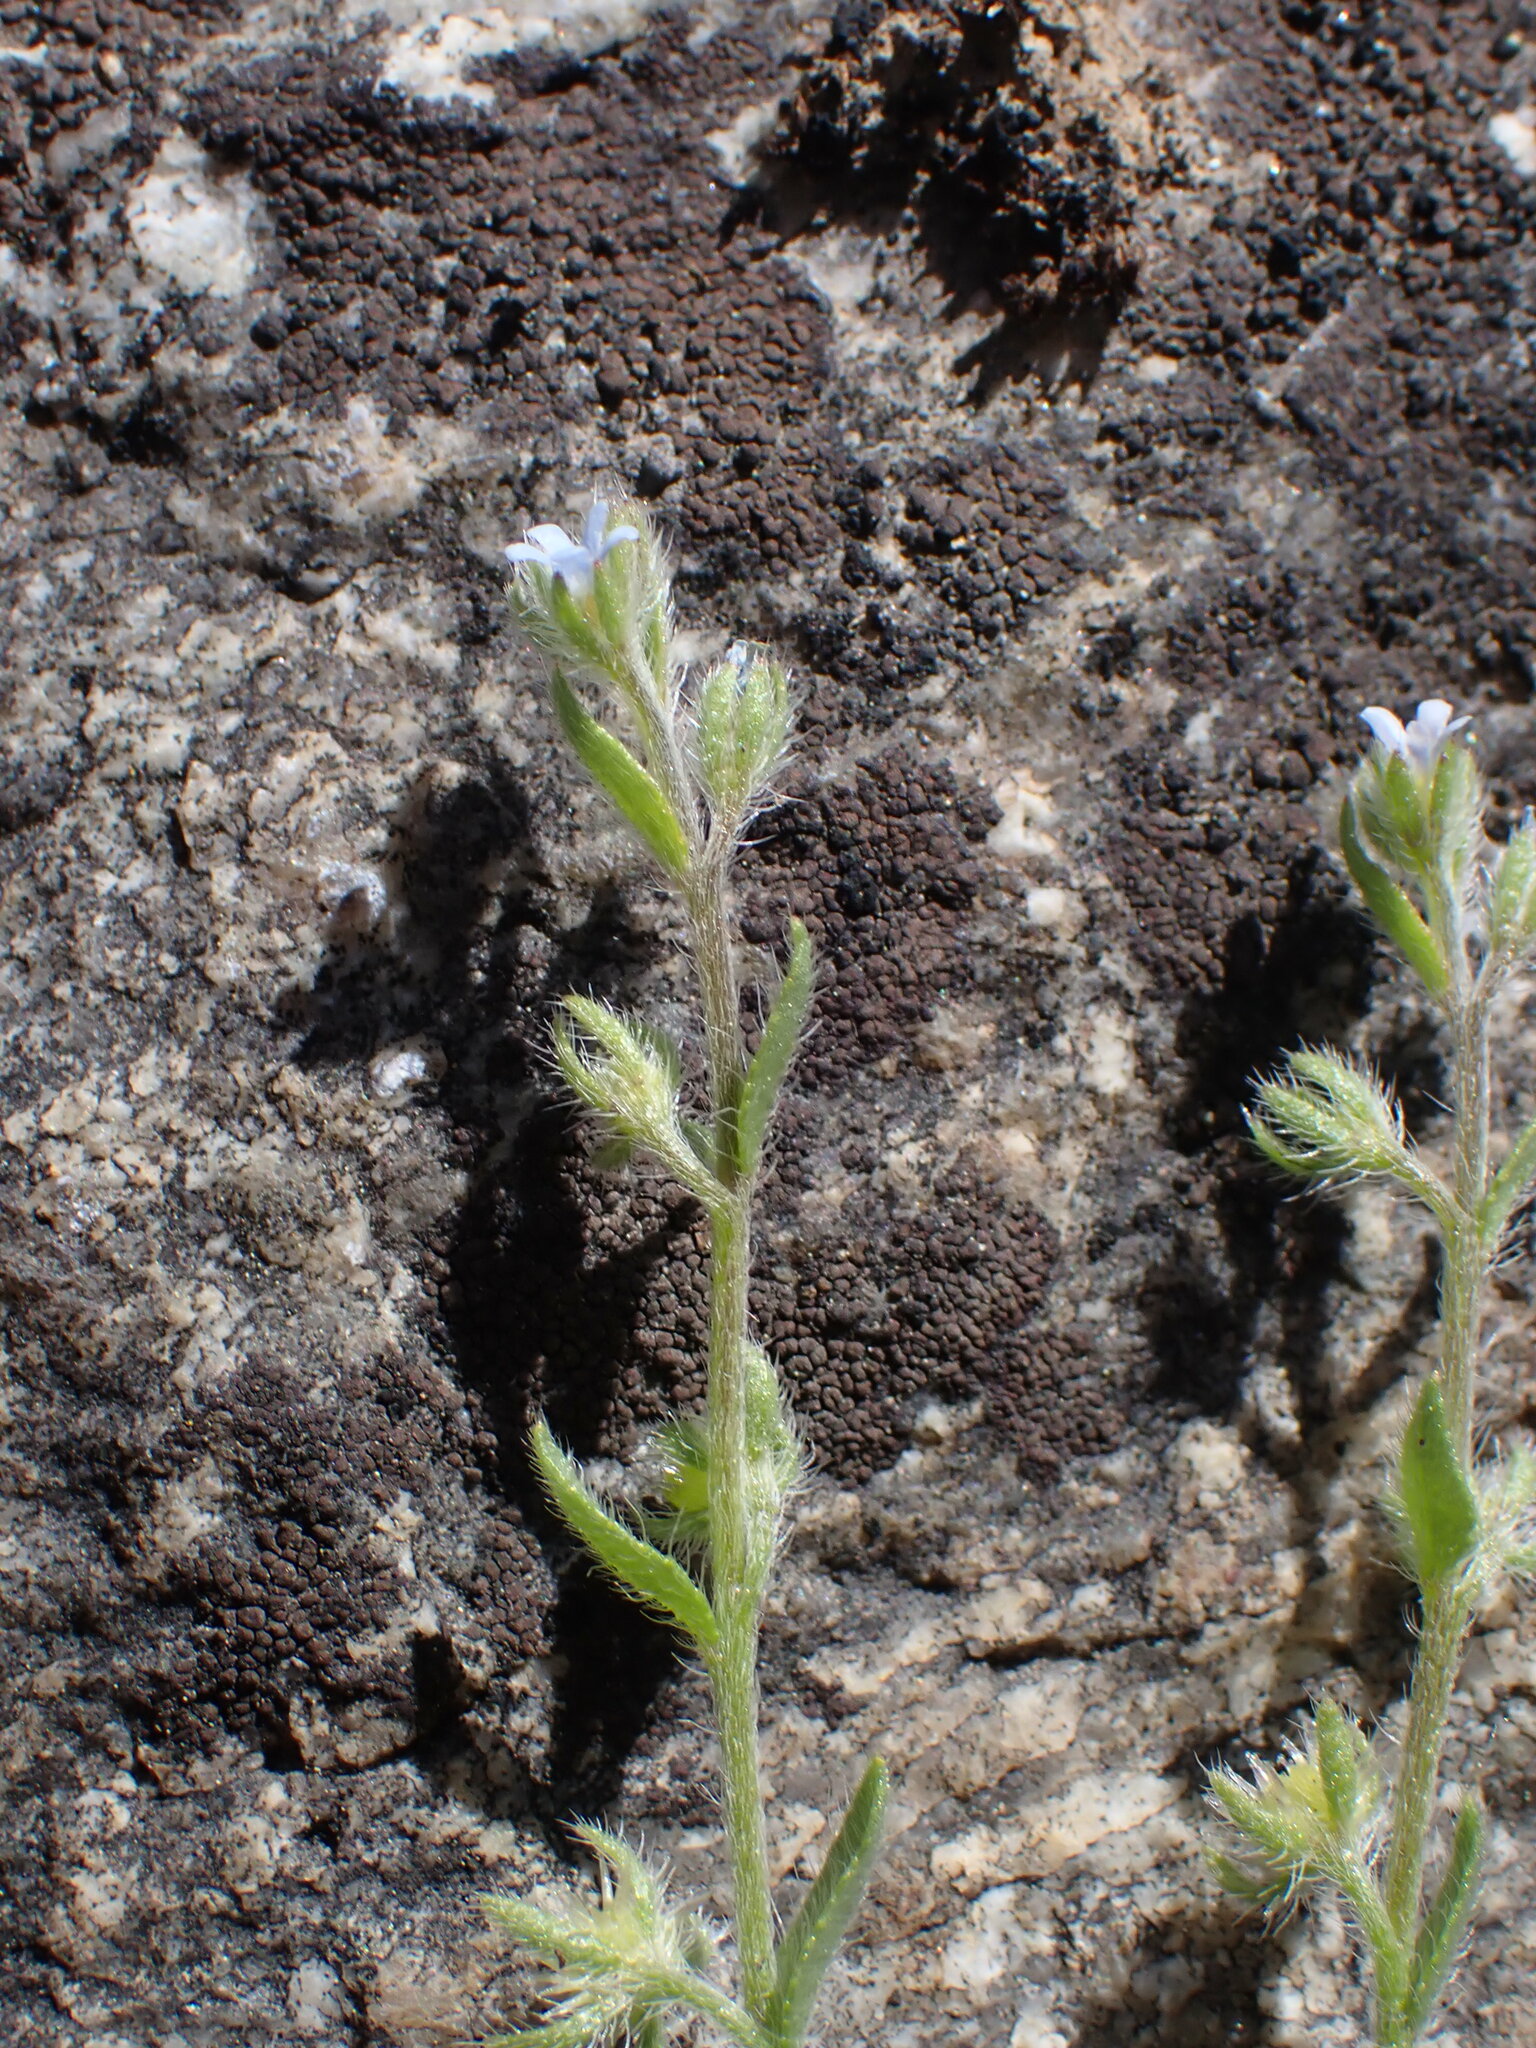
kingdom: Plantae
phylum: Tracheophyta
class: Magnoliopsida
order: Boraginales
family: Boraginaceae
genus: Lappula
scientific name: Lappula squarrosa
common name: European stickseed
